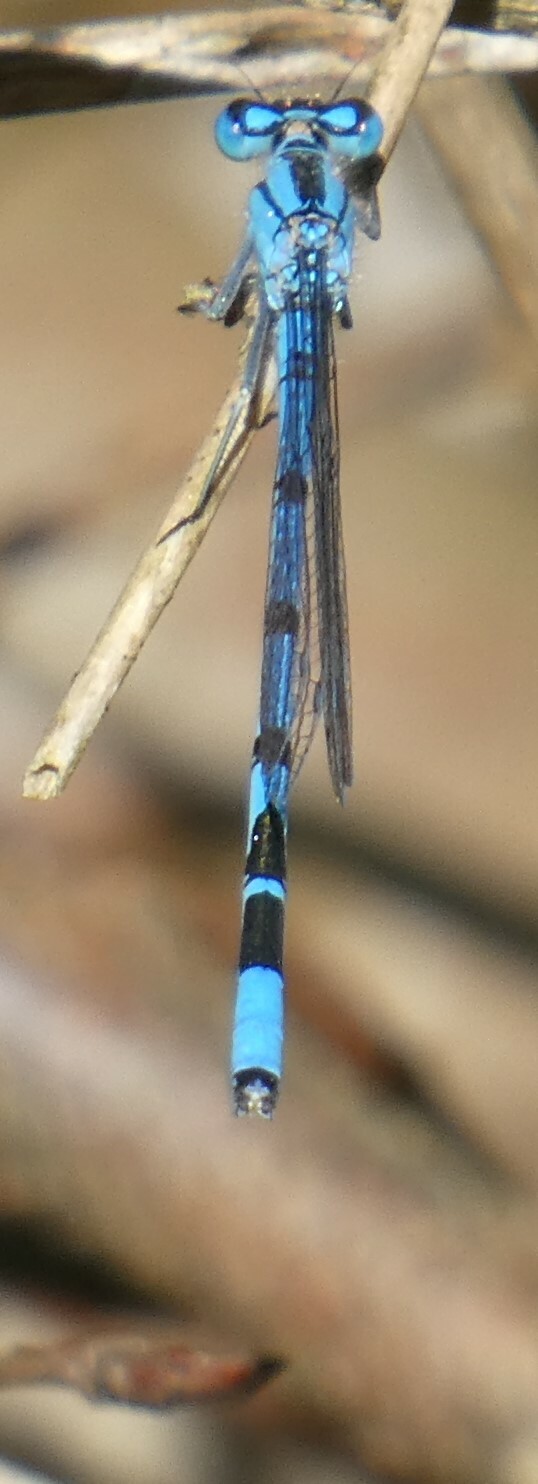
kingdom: Animalia
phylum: Arthropoda
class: Insecta
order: Odonata
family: Coenagrionidae
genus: Enallagma
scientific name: Enallagma cyathigerum
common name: Common blue damselfly
